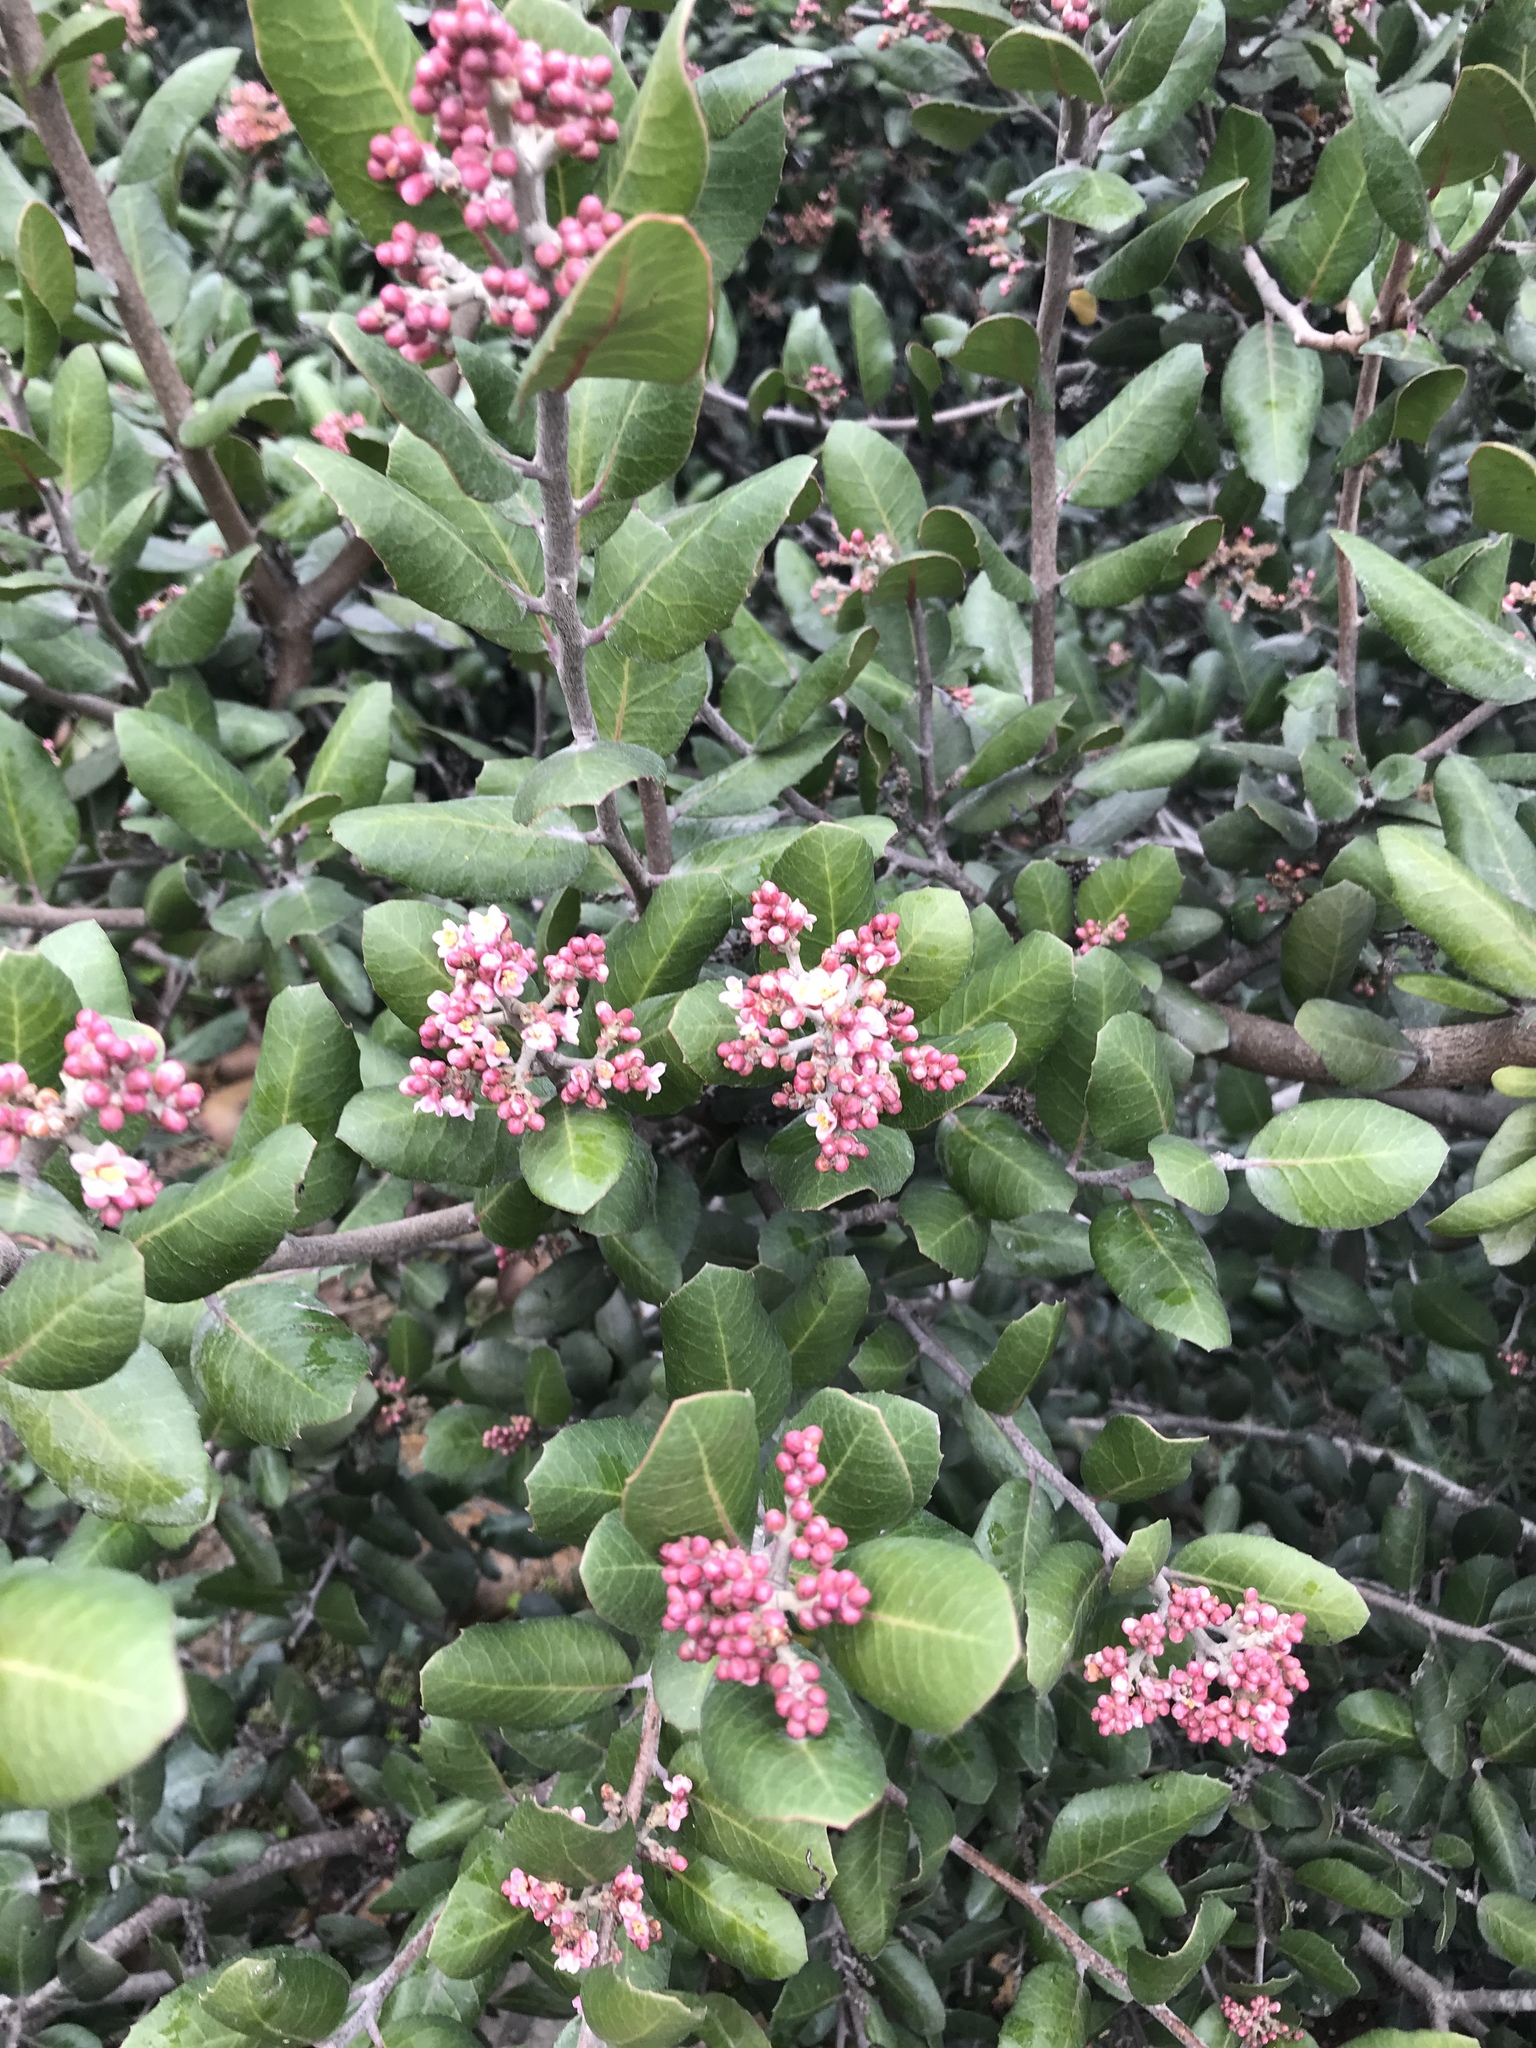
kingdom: Plantae
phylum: Tracheophyta
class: Magnoliopsida
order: Sapindales
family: Anacardiaceae
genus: Rhus
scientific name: Rhus integrifolia
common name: Lemonade sumac
